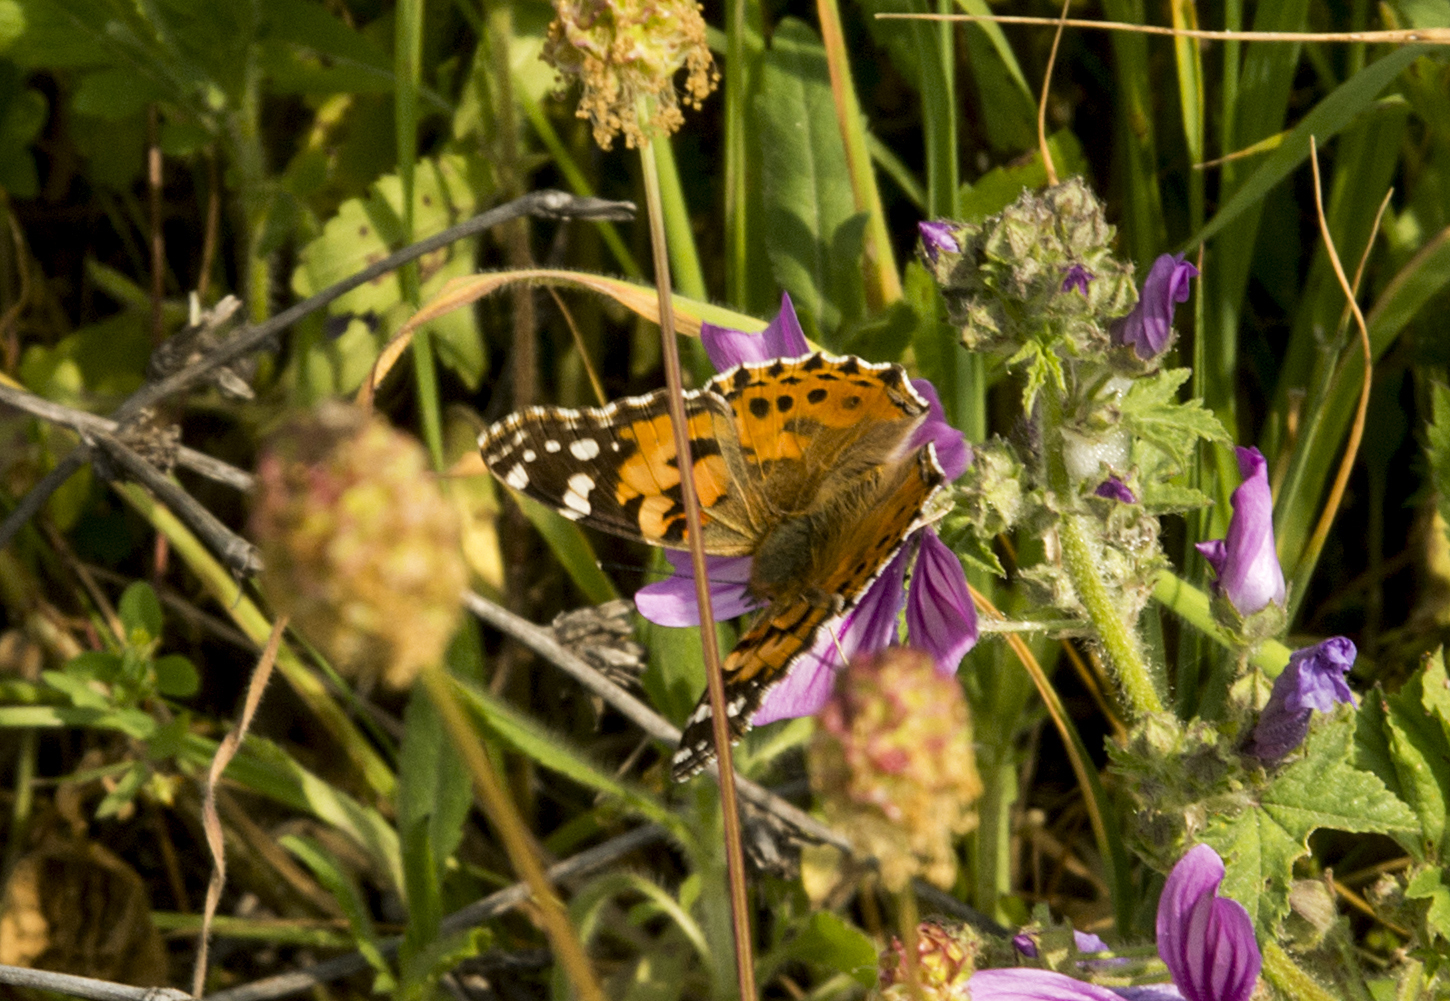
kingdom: Animalia
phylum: Arthropoda
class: Insecta
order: Lepidoptera
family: Nymphalidae
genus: Vanessa
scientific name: Vanessa cardui
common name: Painted lady
